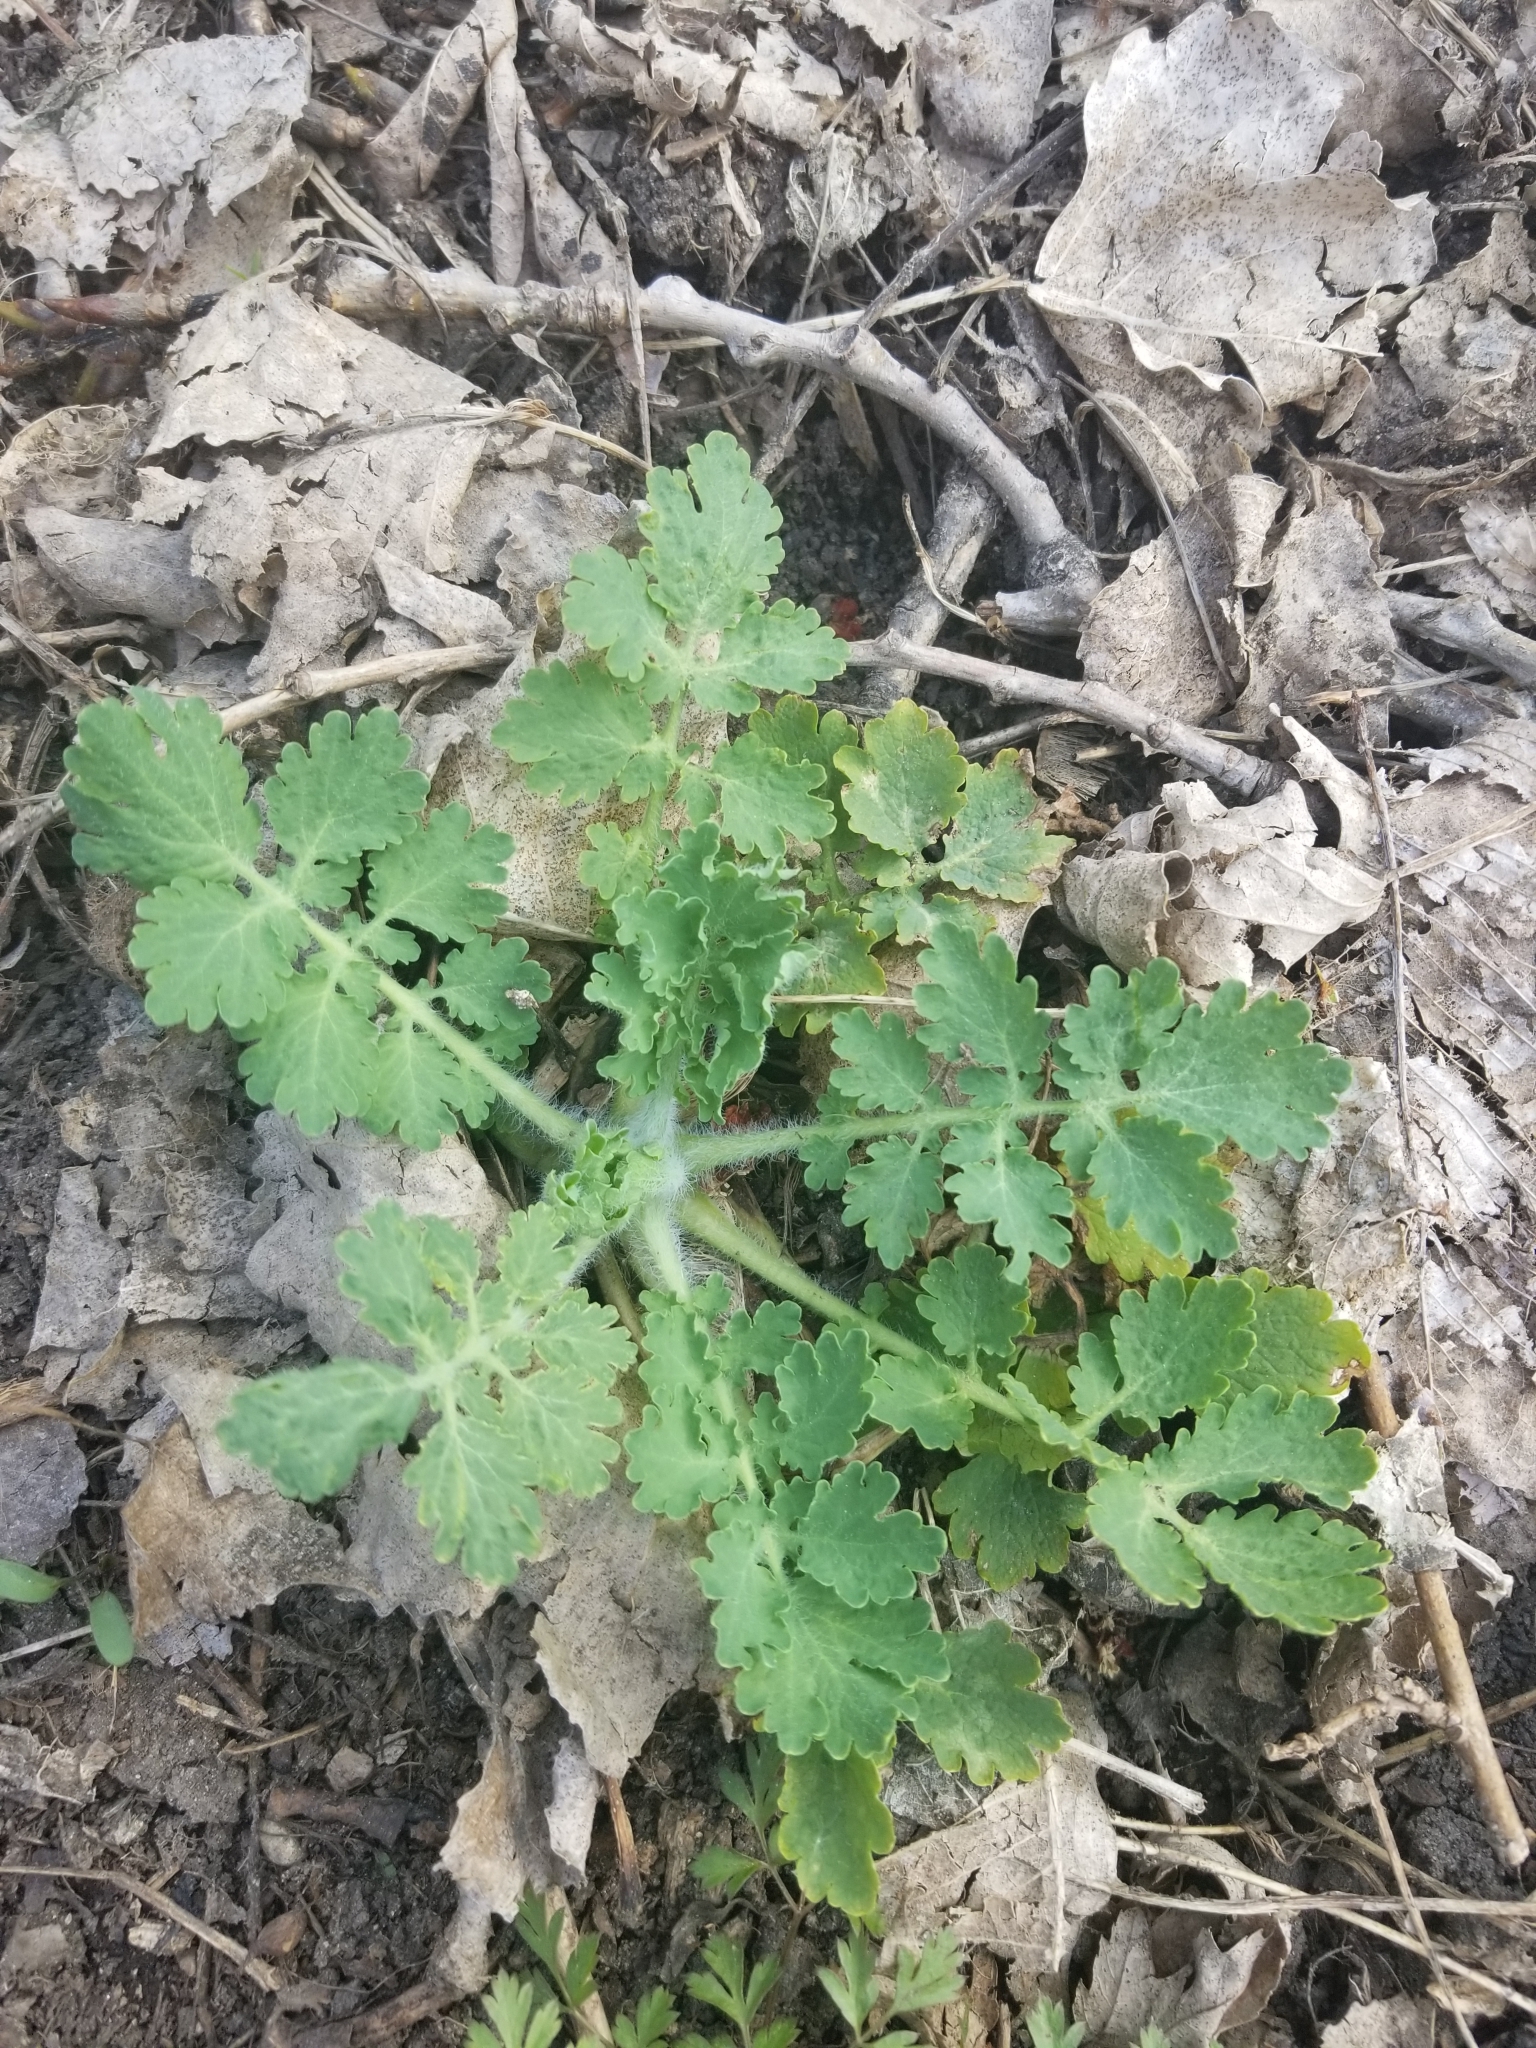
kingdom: Plantae
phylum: Tracheophyta
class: Magnoliopsida
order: Ranunculales
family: Papaveraceae
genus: Chelidonium
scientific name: Chelidonium majus
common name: Greater celandine
